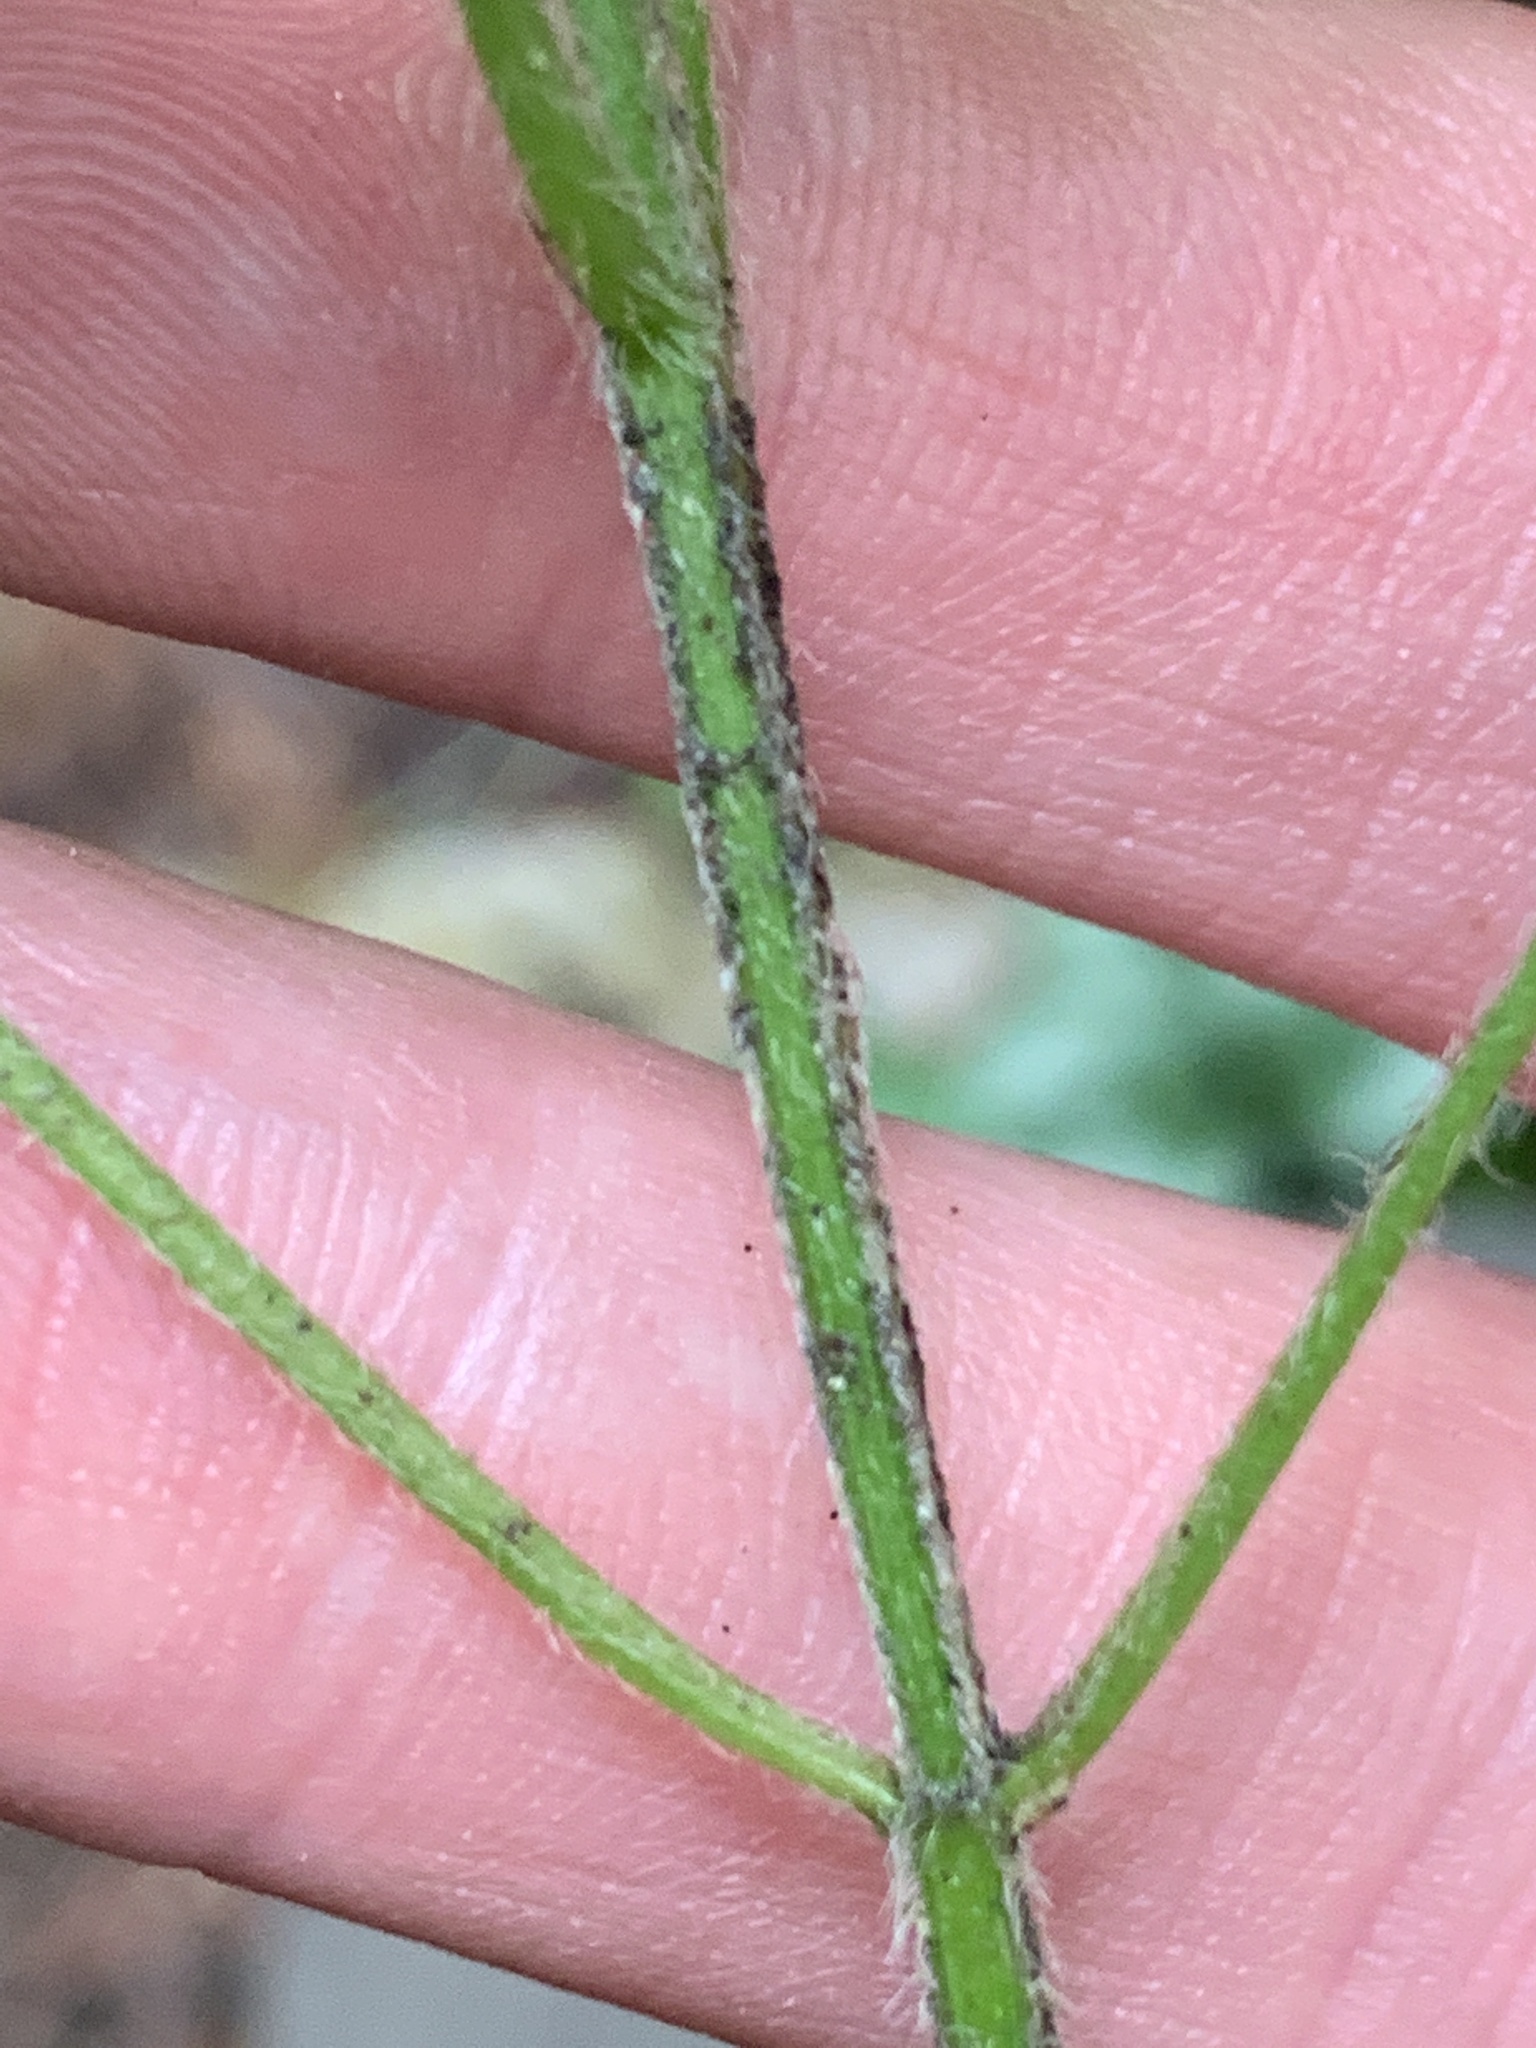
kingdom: Plantae
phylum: Tracheophyta
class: Magnoliopsida
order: Lamiales
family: Lamiaceae
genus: Lamium
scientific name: Lamium galeobdolon
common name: Yellow archangel
